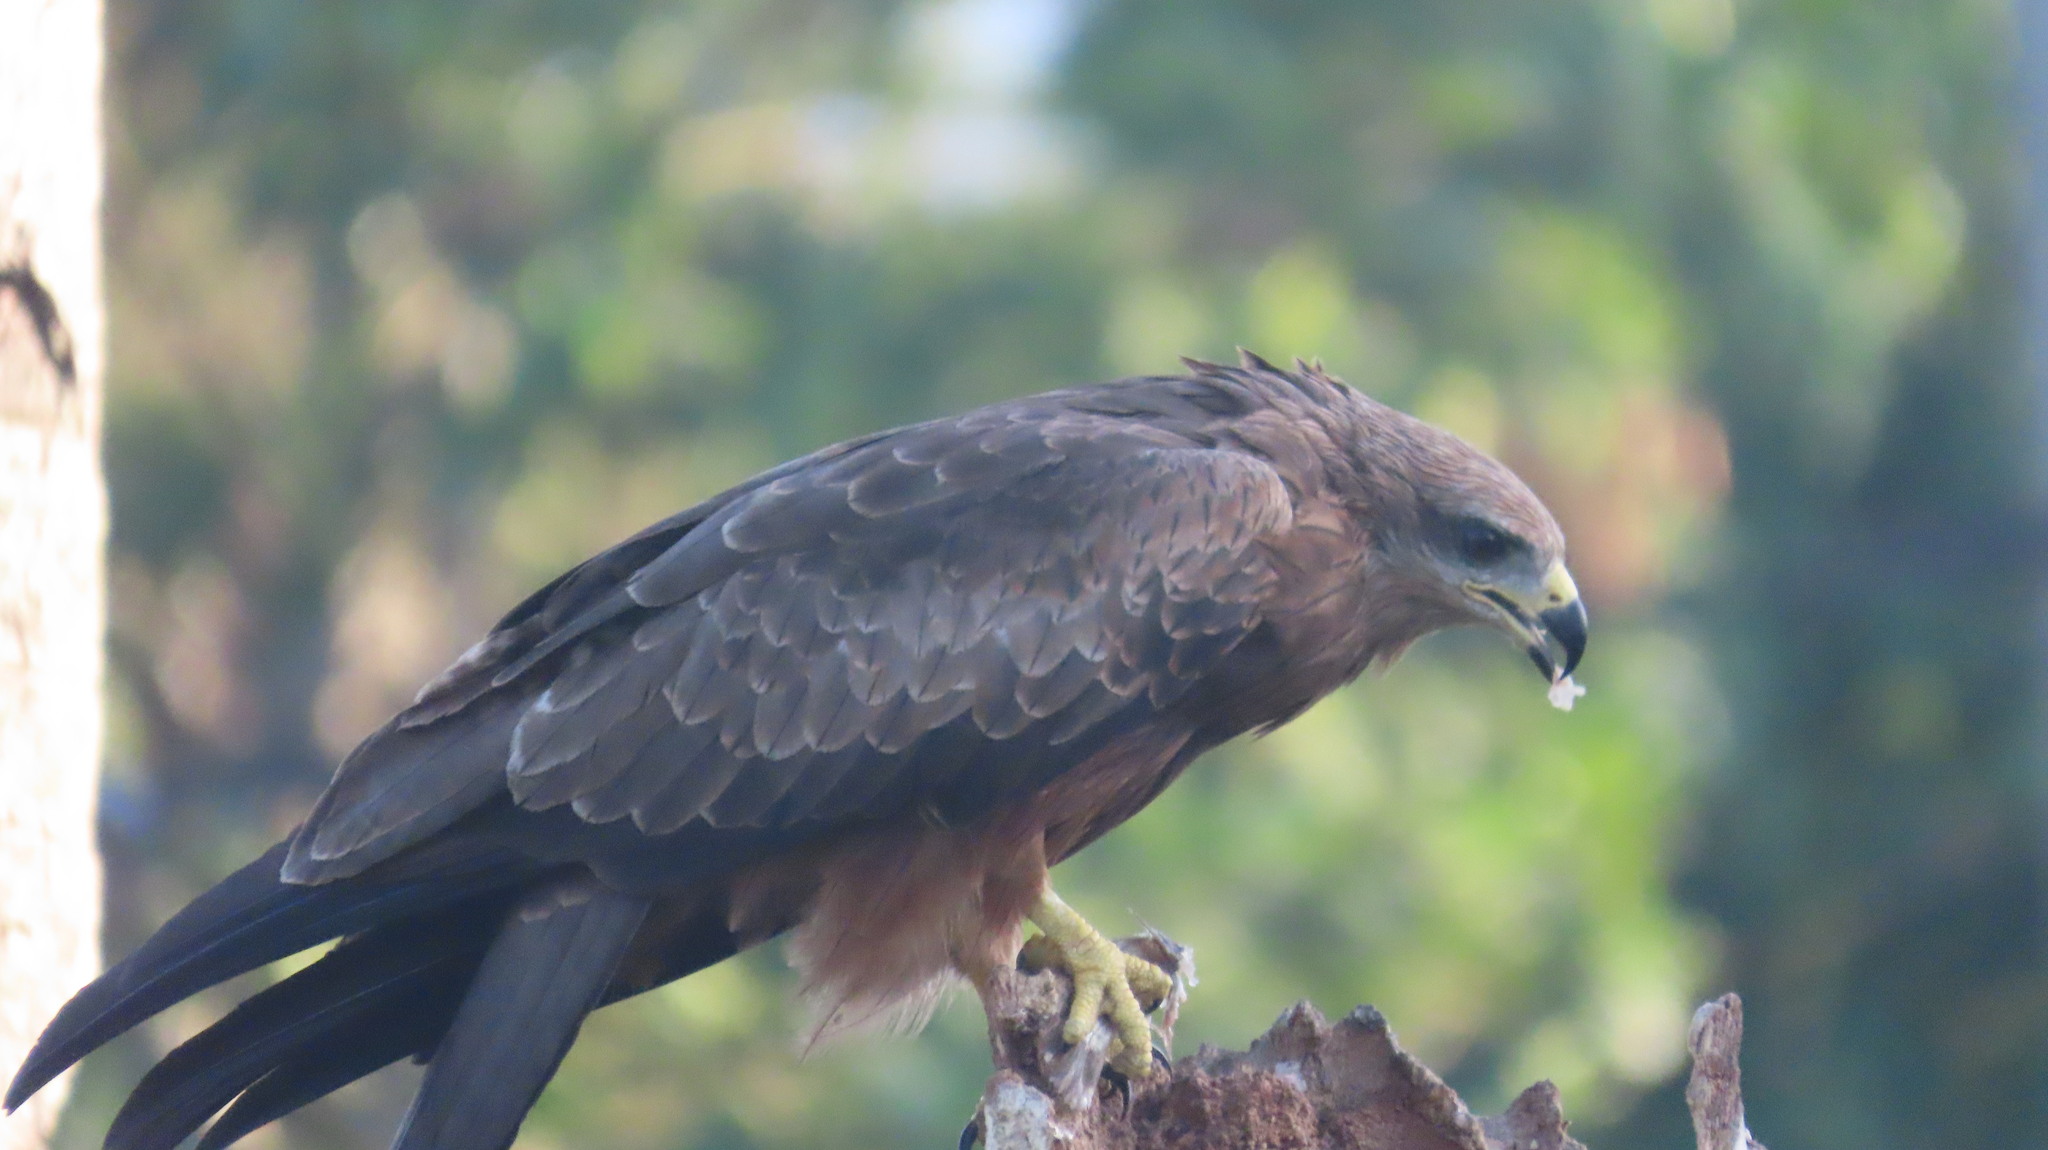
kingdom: Animalia
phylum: Chordata
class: Aves
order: Accipitriformes
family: Accipitridae
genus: Milvus
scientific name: Milvus migrans
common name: Black kite
